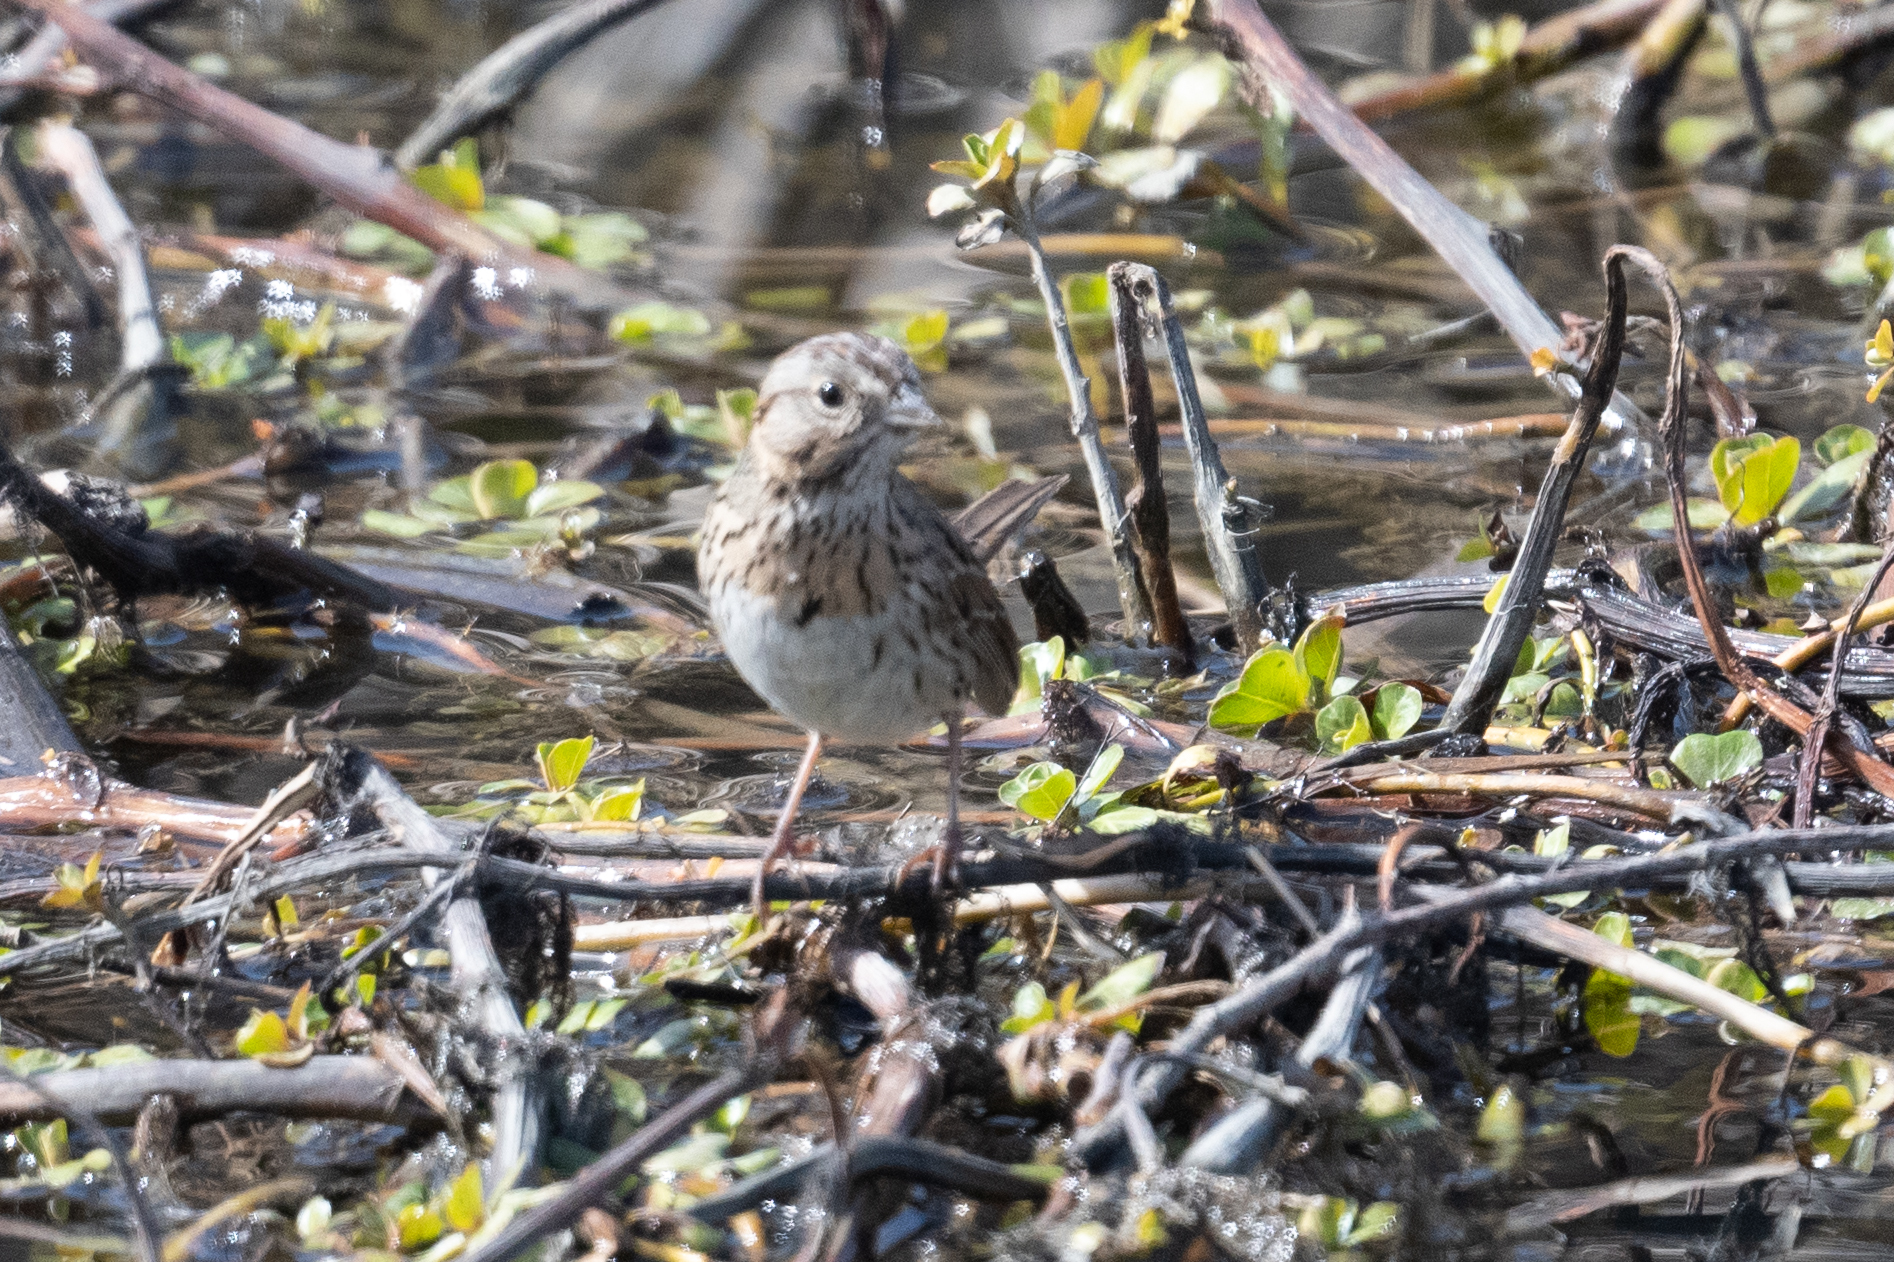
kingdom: Animalia
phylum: Chordata
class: Aves
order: Passeriformes
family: Passerellidae
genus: Melospiza
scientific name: Melospiza lincolnii
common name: Lincoln's sparrow
